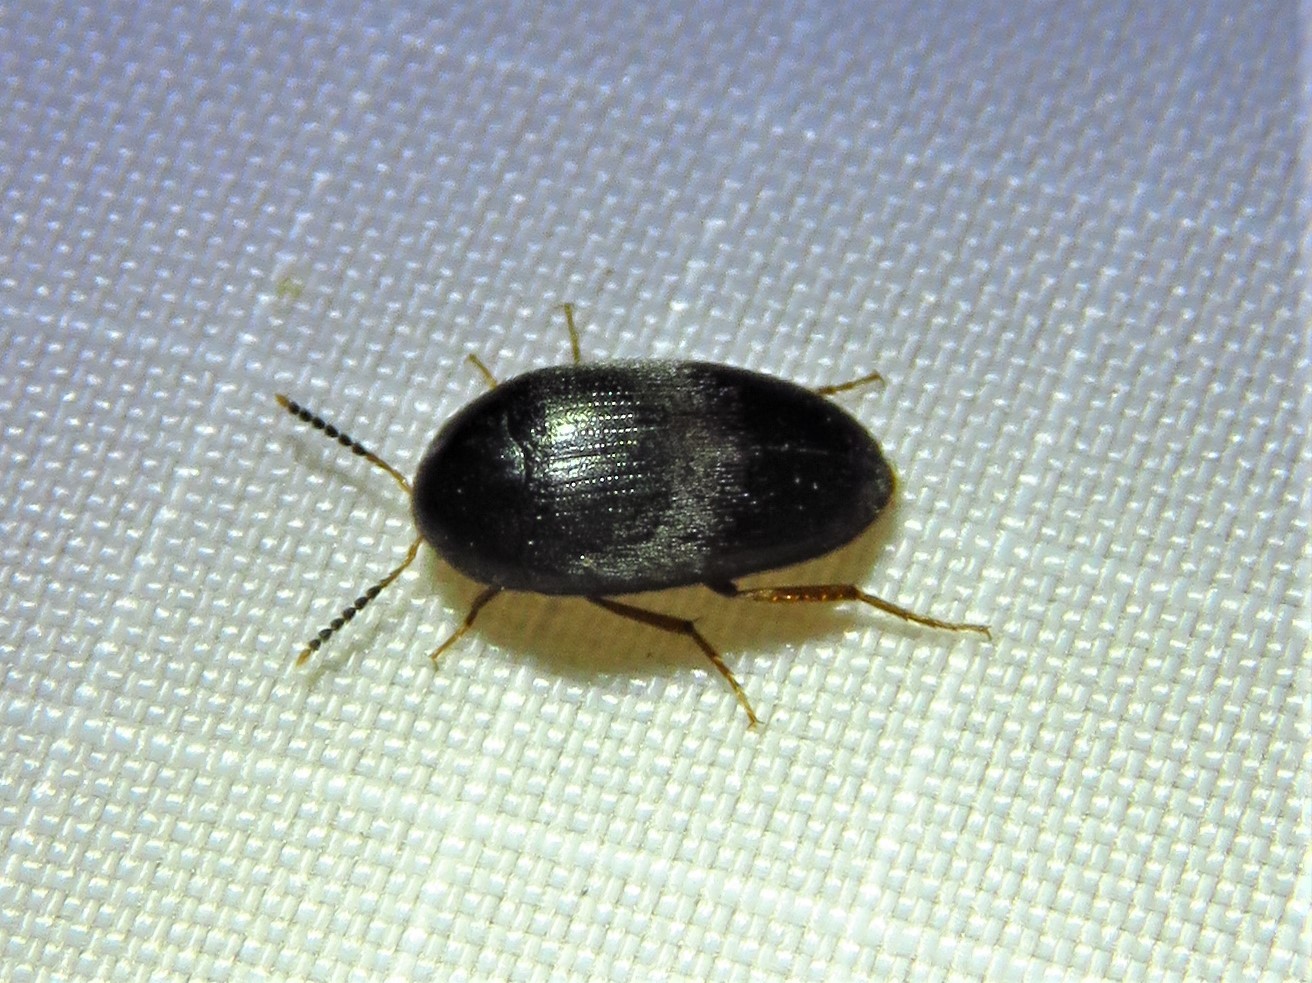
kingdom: Animalia
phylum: Arthropoda
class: Insecta
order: Coleoptera
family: Tetratomidae
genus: Eustrophopsis
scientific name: Eustrophopsis bicolor
